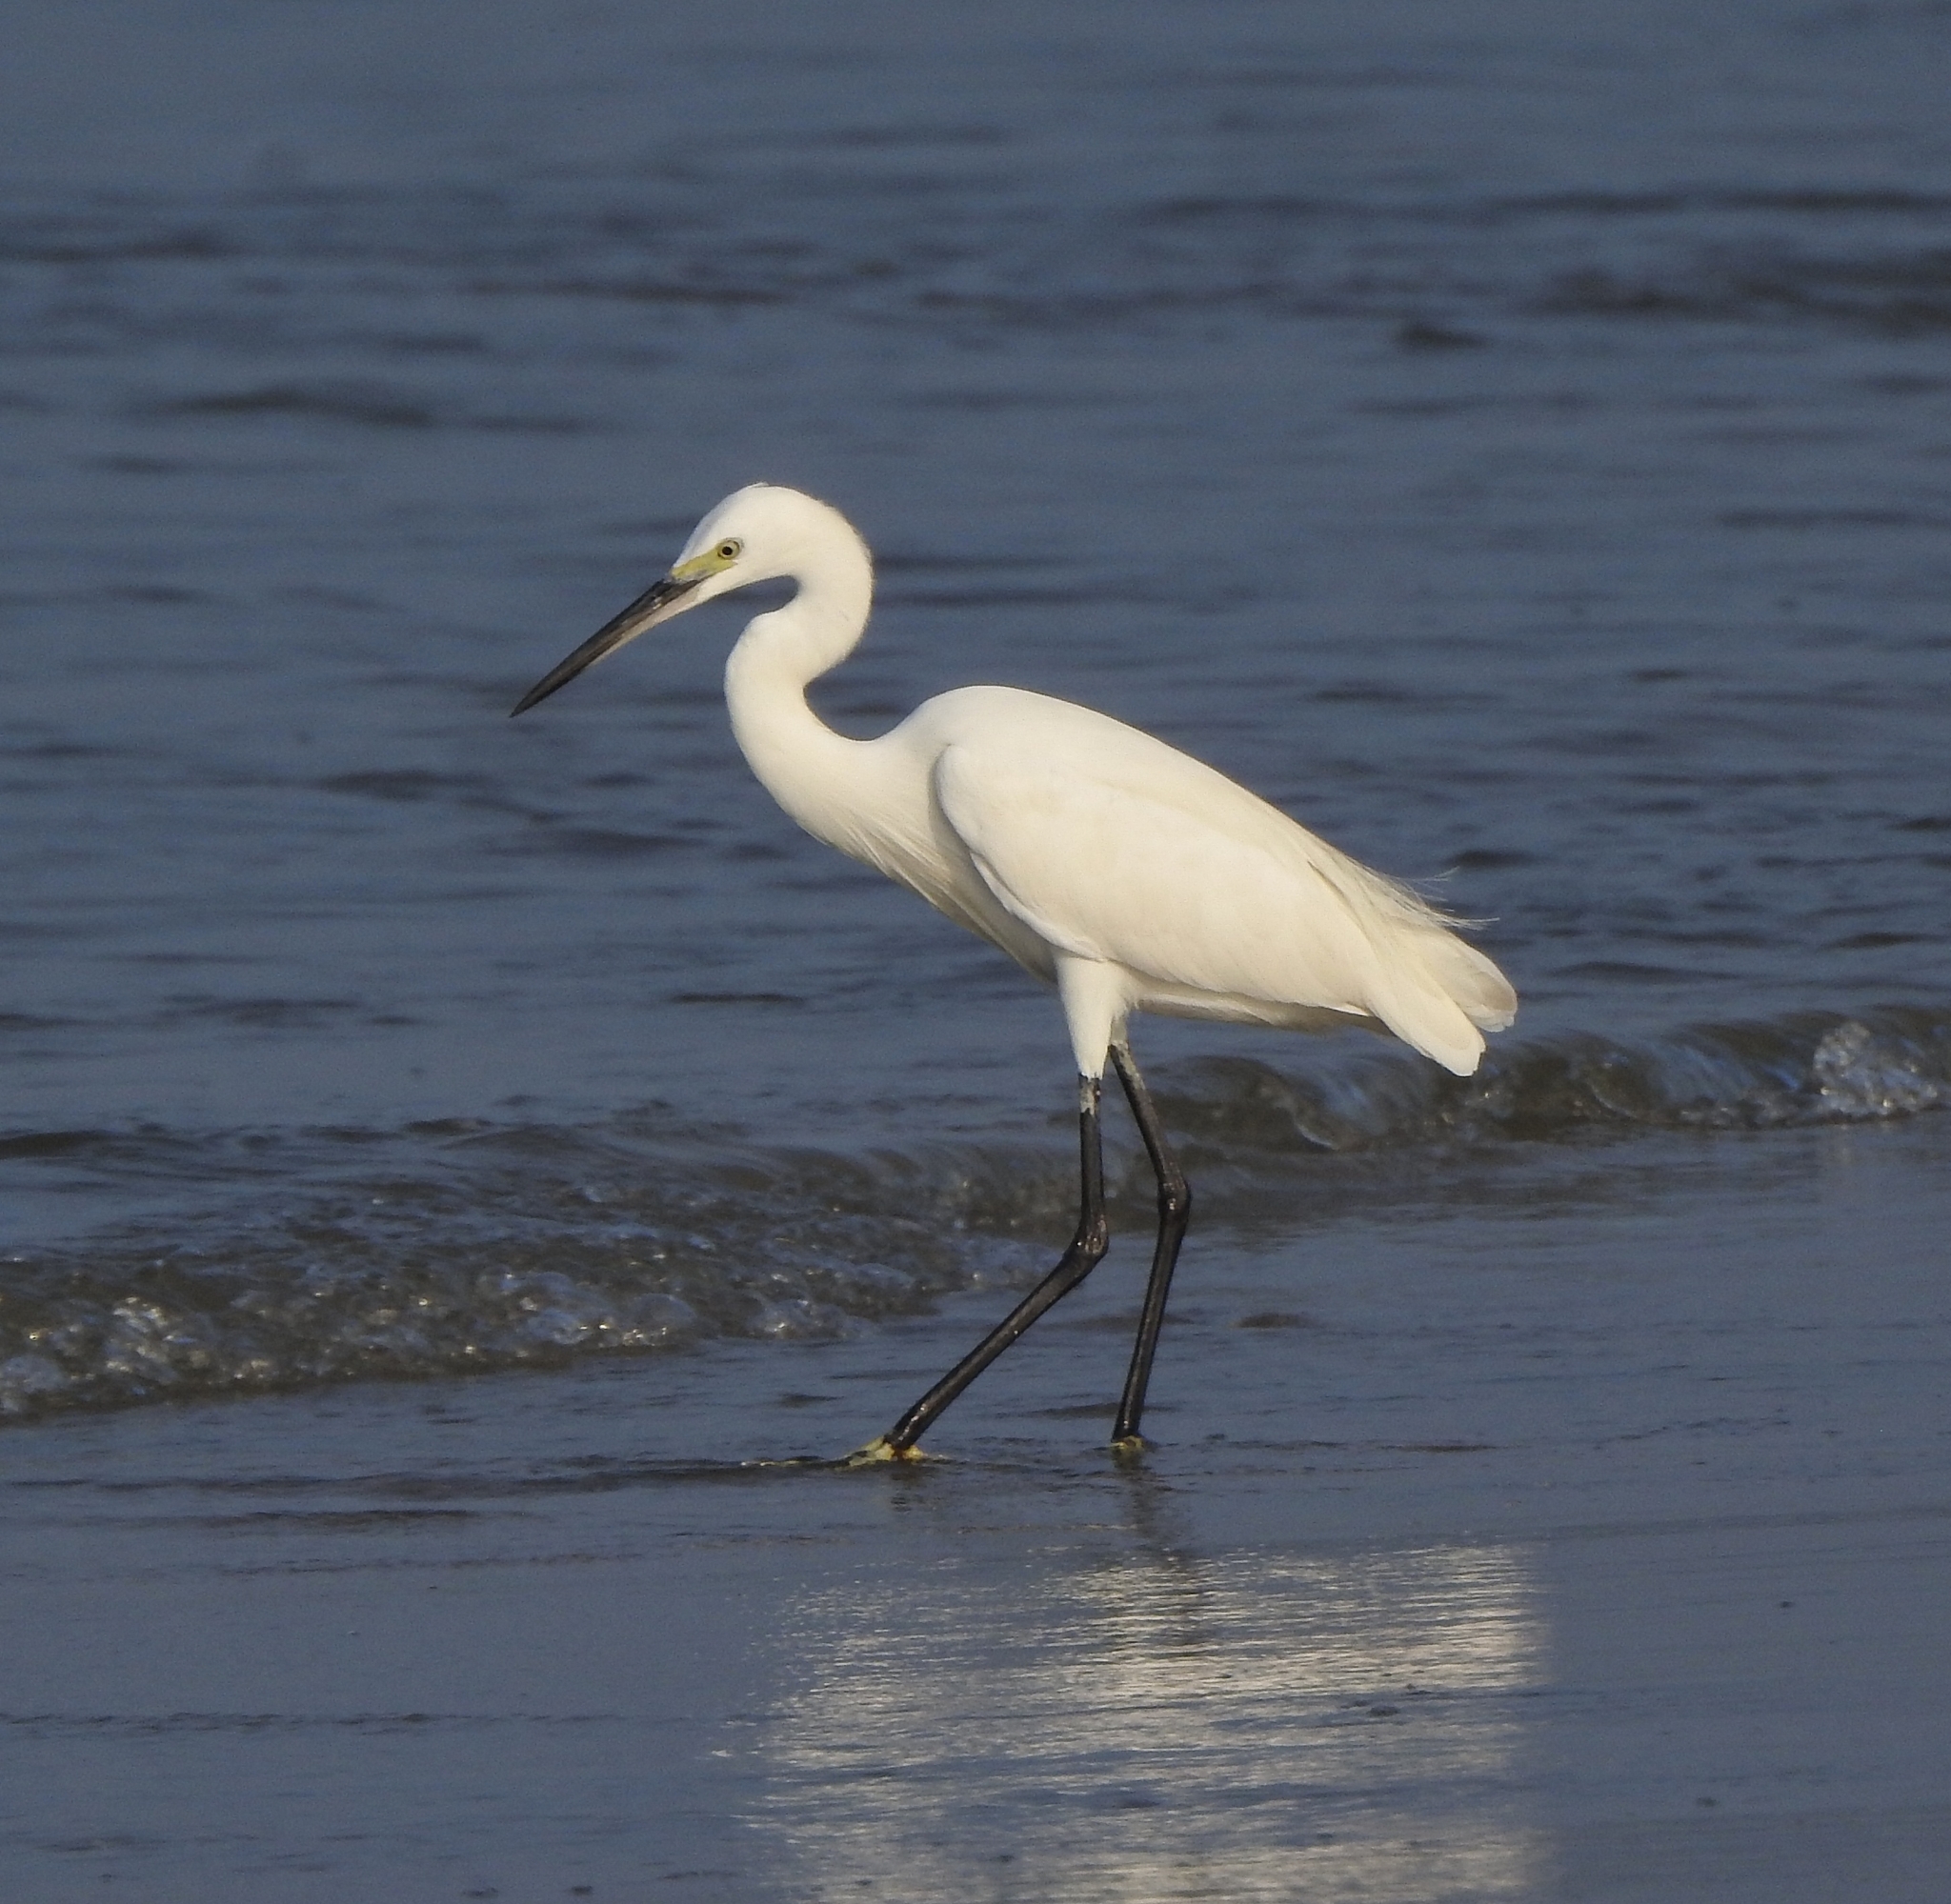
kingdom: Animalia
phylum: Chordata
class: Aves
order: Pelecaniformes
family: Ardeidae
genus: Egretta
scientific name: Egretta garzetta
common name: Little egret
